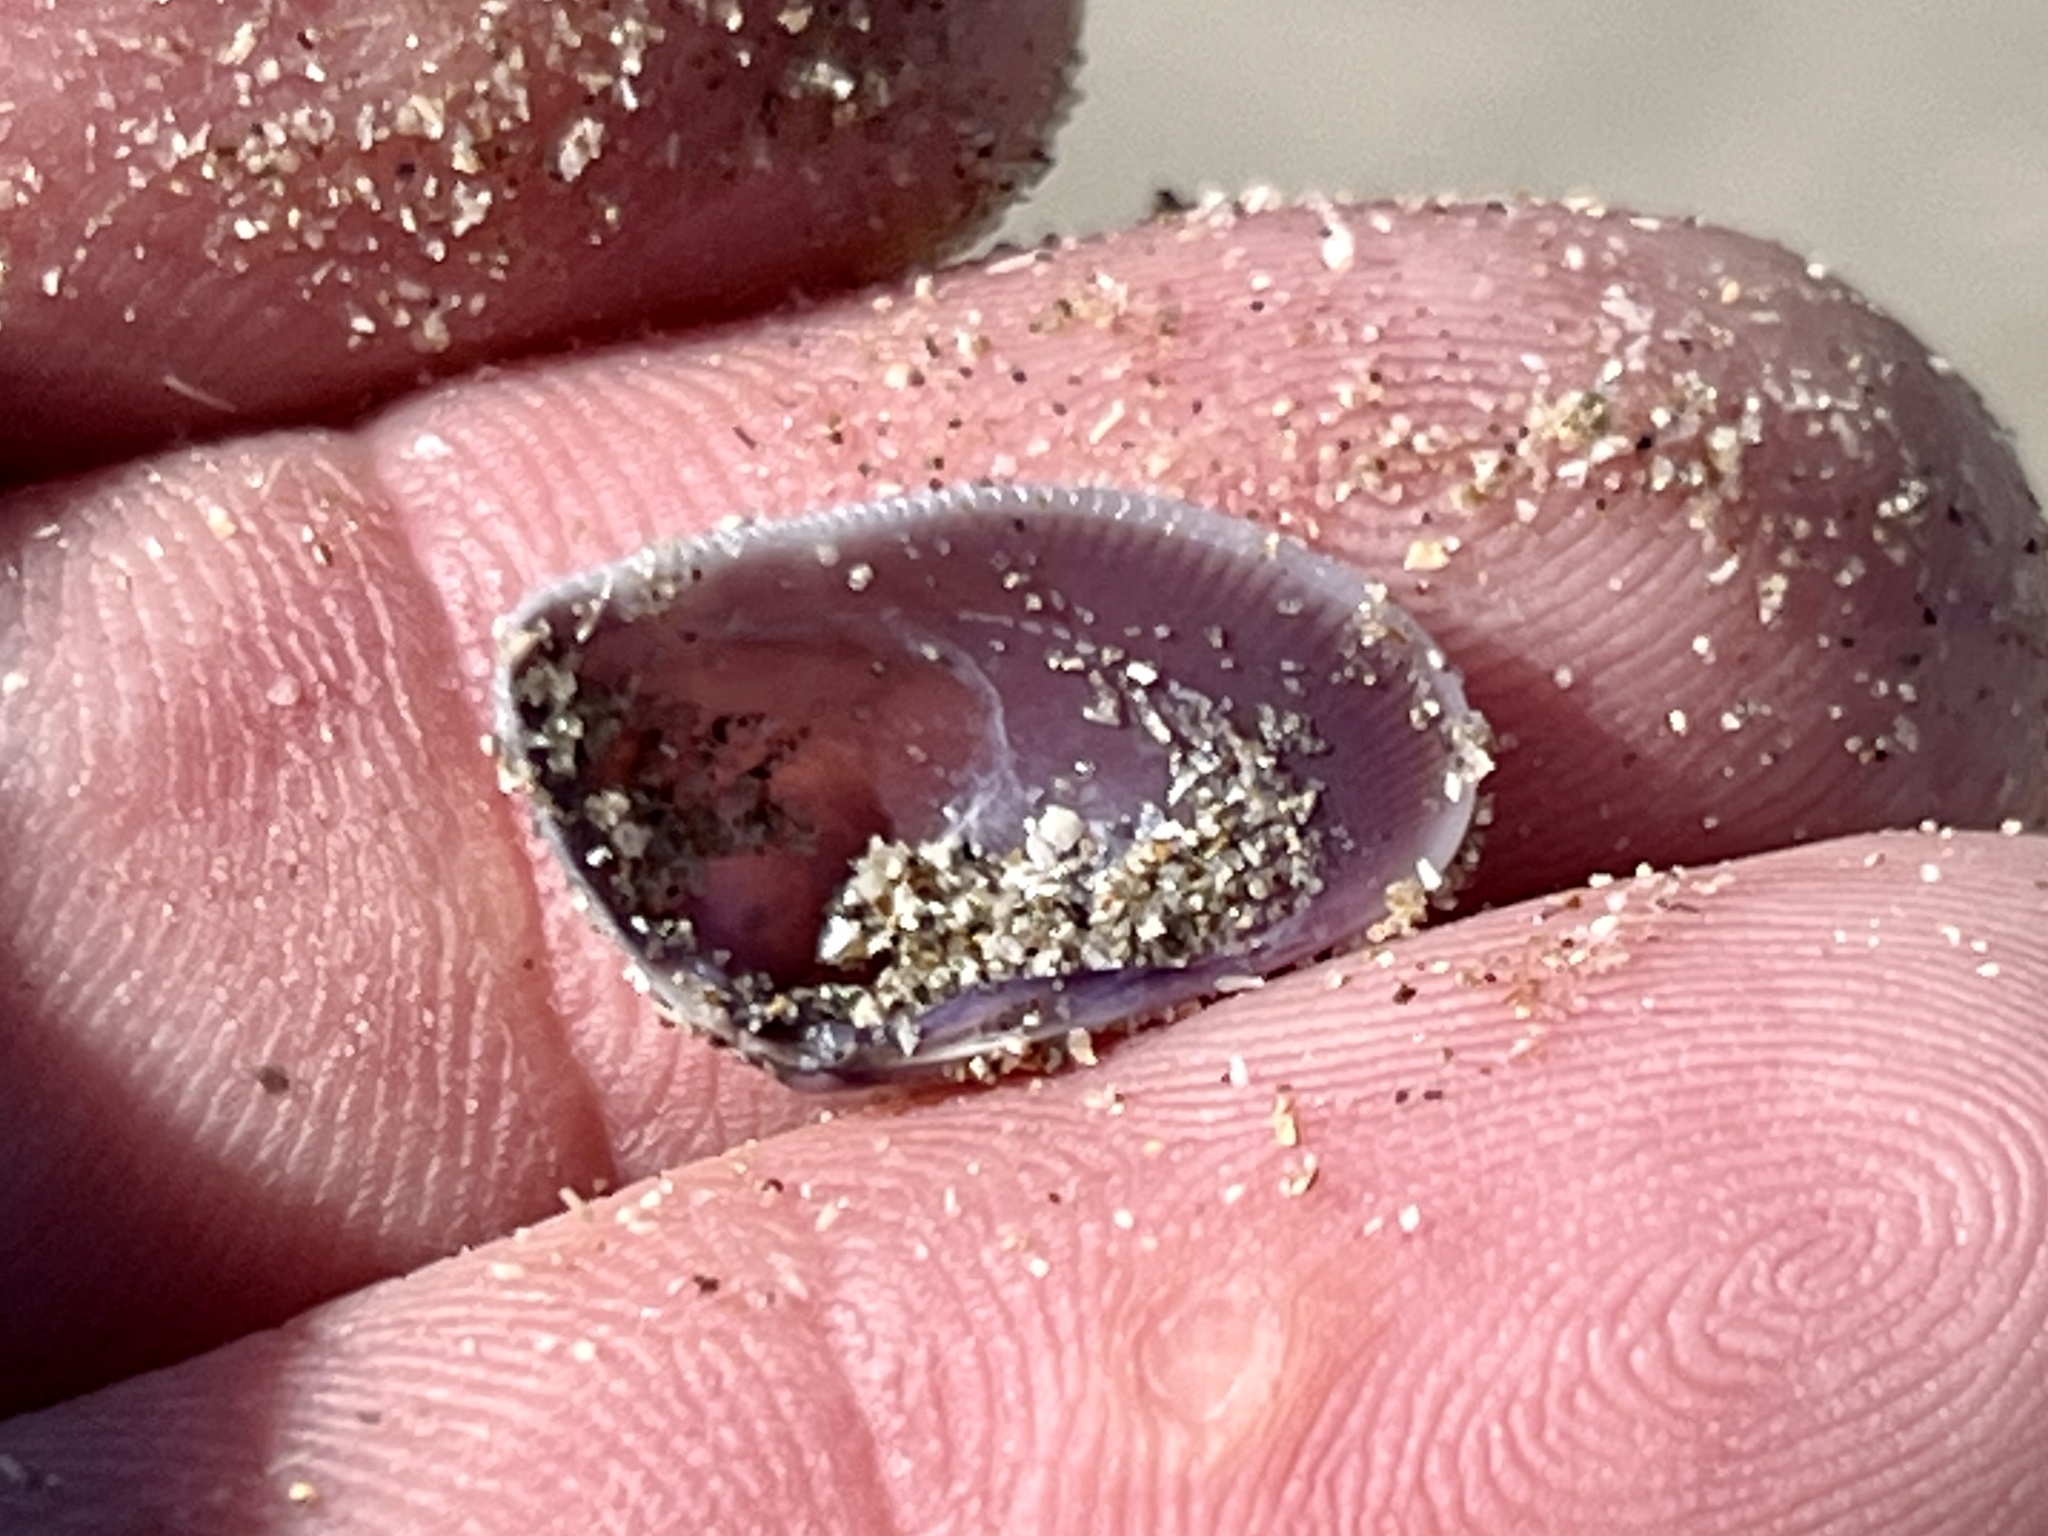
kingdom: Animalia
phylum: Mollusca
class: Bivalvia
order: Cardiida
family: Donacidae
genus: Donax
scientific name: Donax variabilis
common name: Butterfly shell
